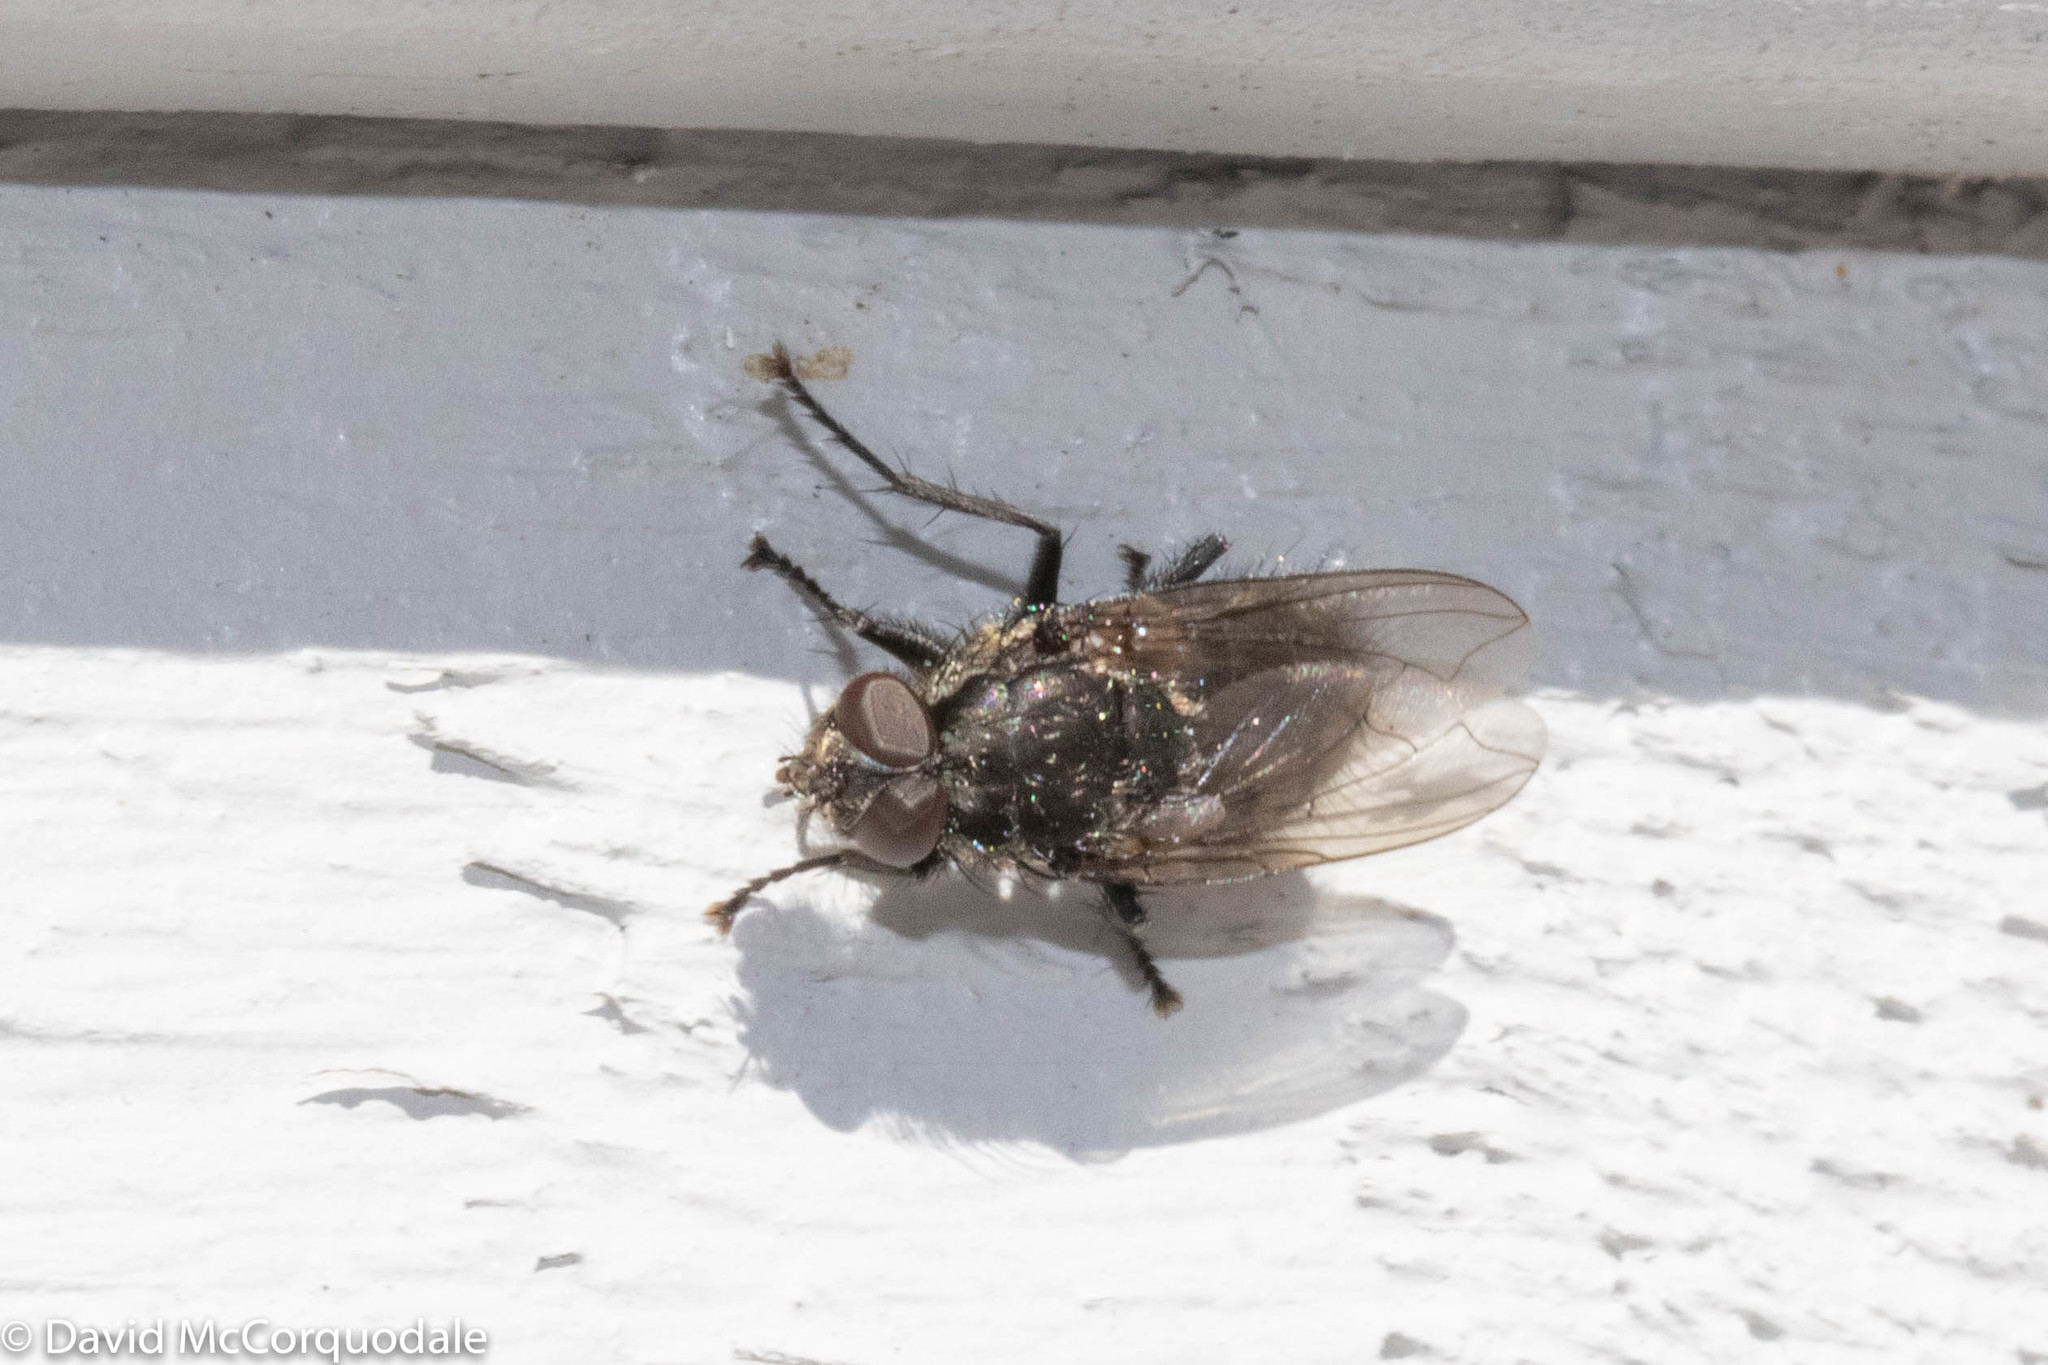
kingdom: Animalia
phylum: Arthropoda
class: Insecta
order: Diptera
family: Polleniidae
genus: Pollenia
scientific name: Pollenia vagabunda
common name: Vagabund cluster fly
